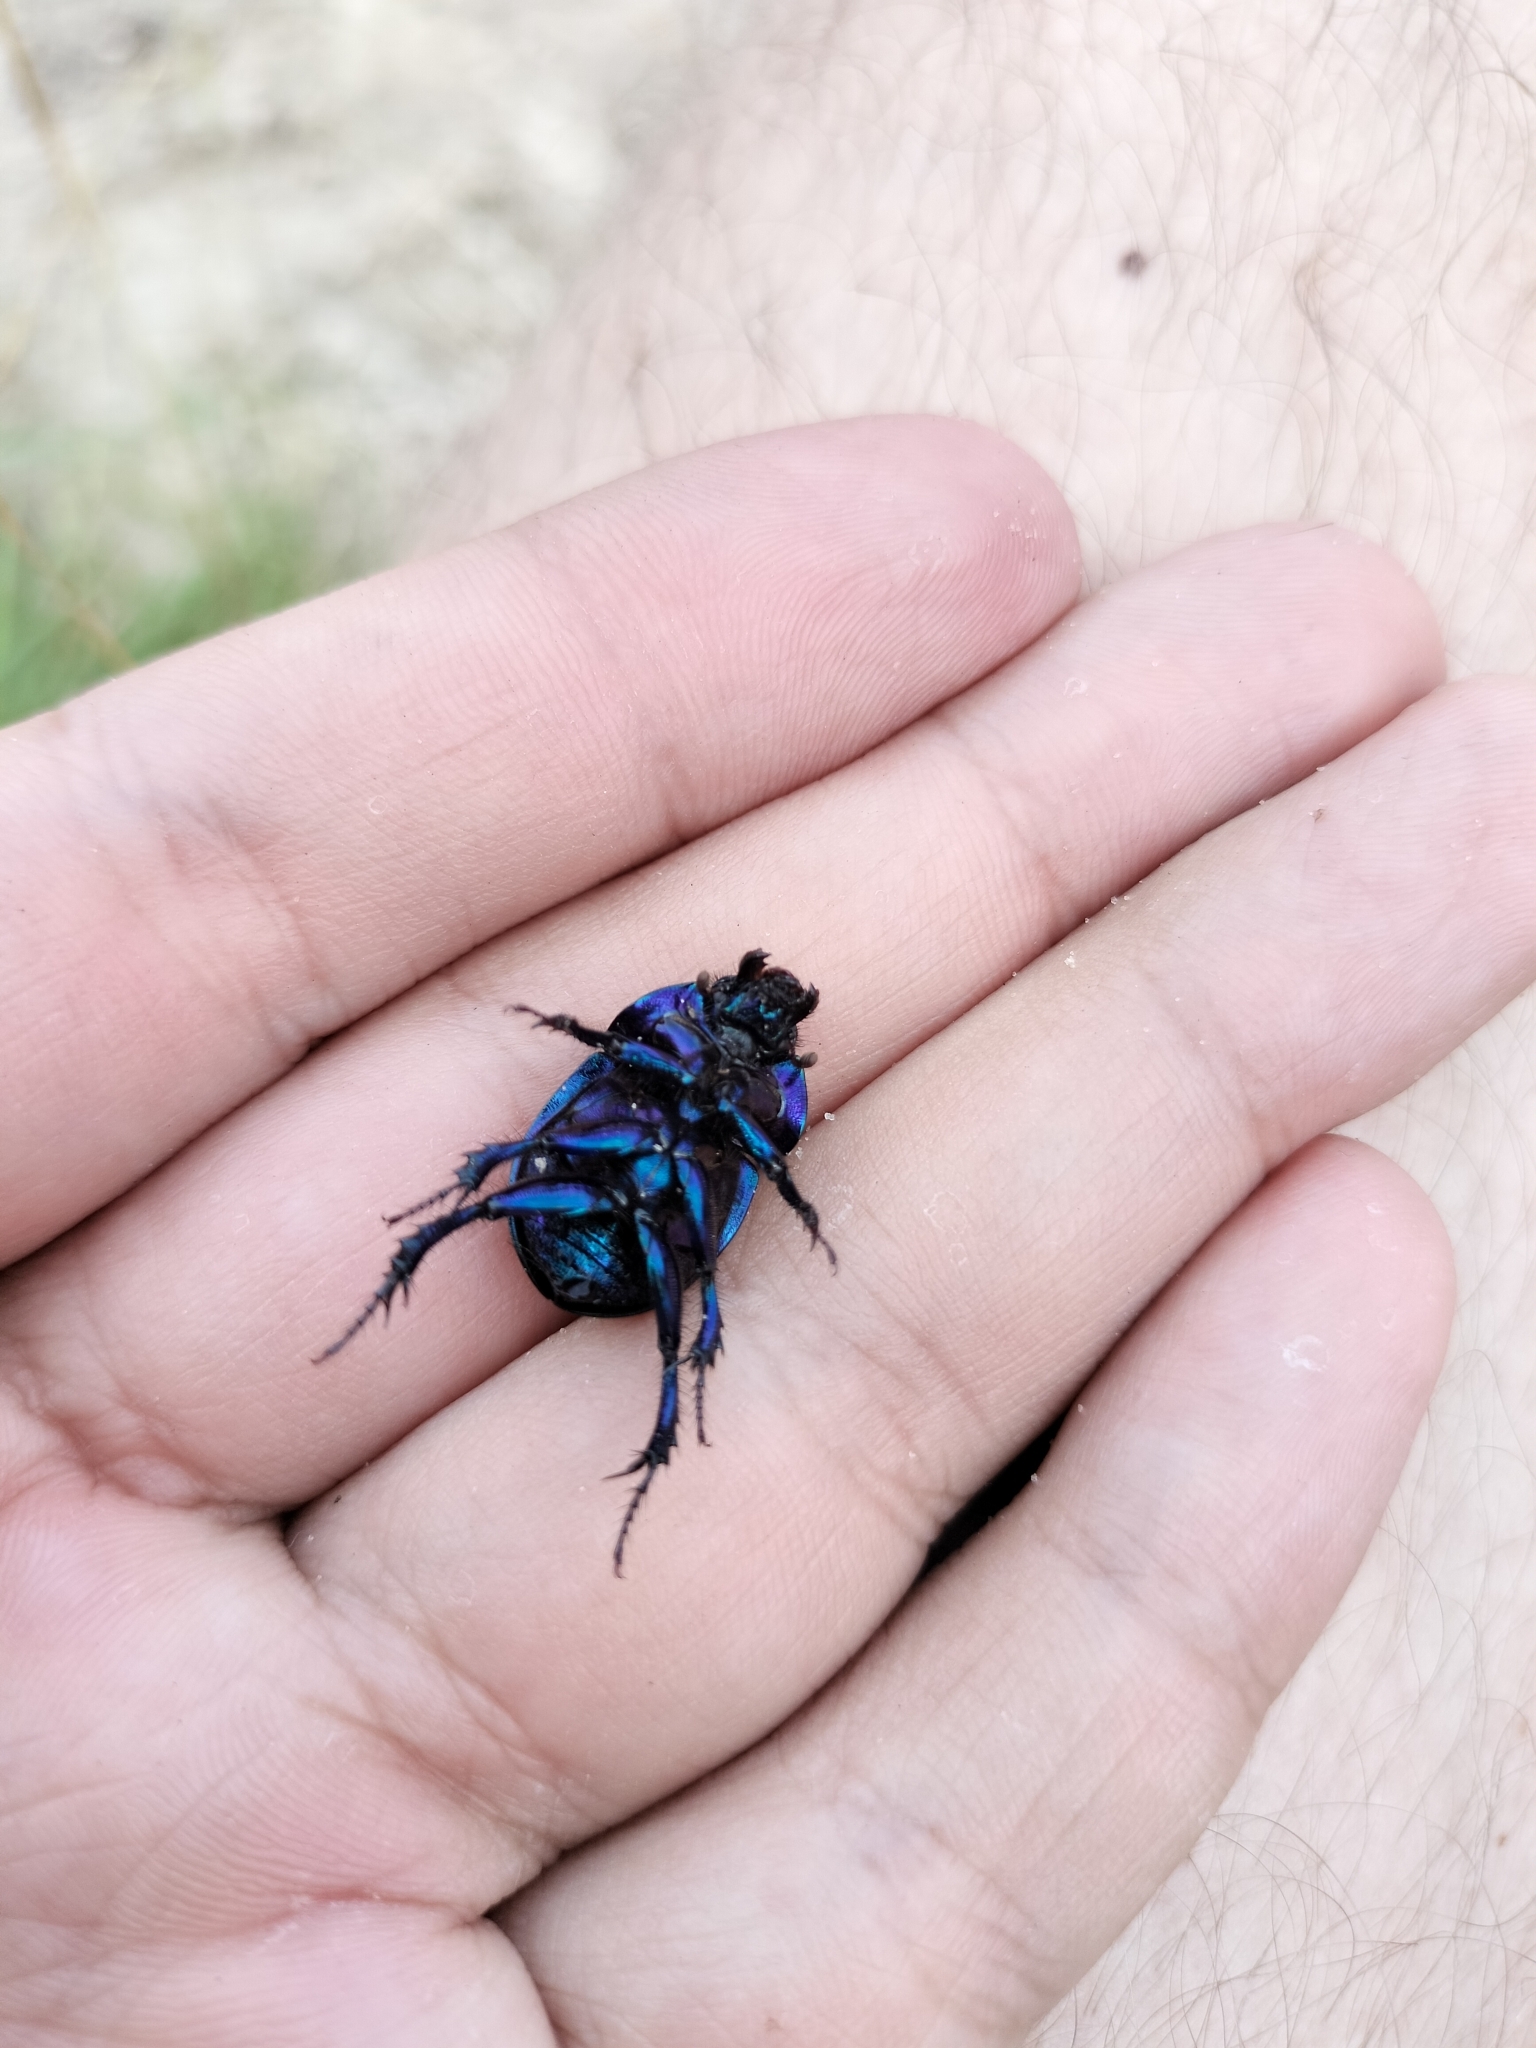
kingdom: Animalia
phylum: Arthropoda
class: Insecta
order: Coleoptera
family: Geotrupidae
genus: Anoplotrupes
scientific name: Anoplotrupes stercorosus
